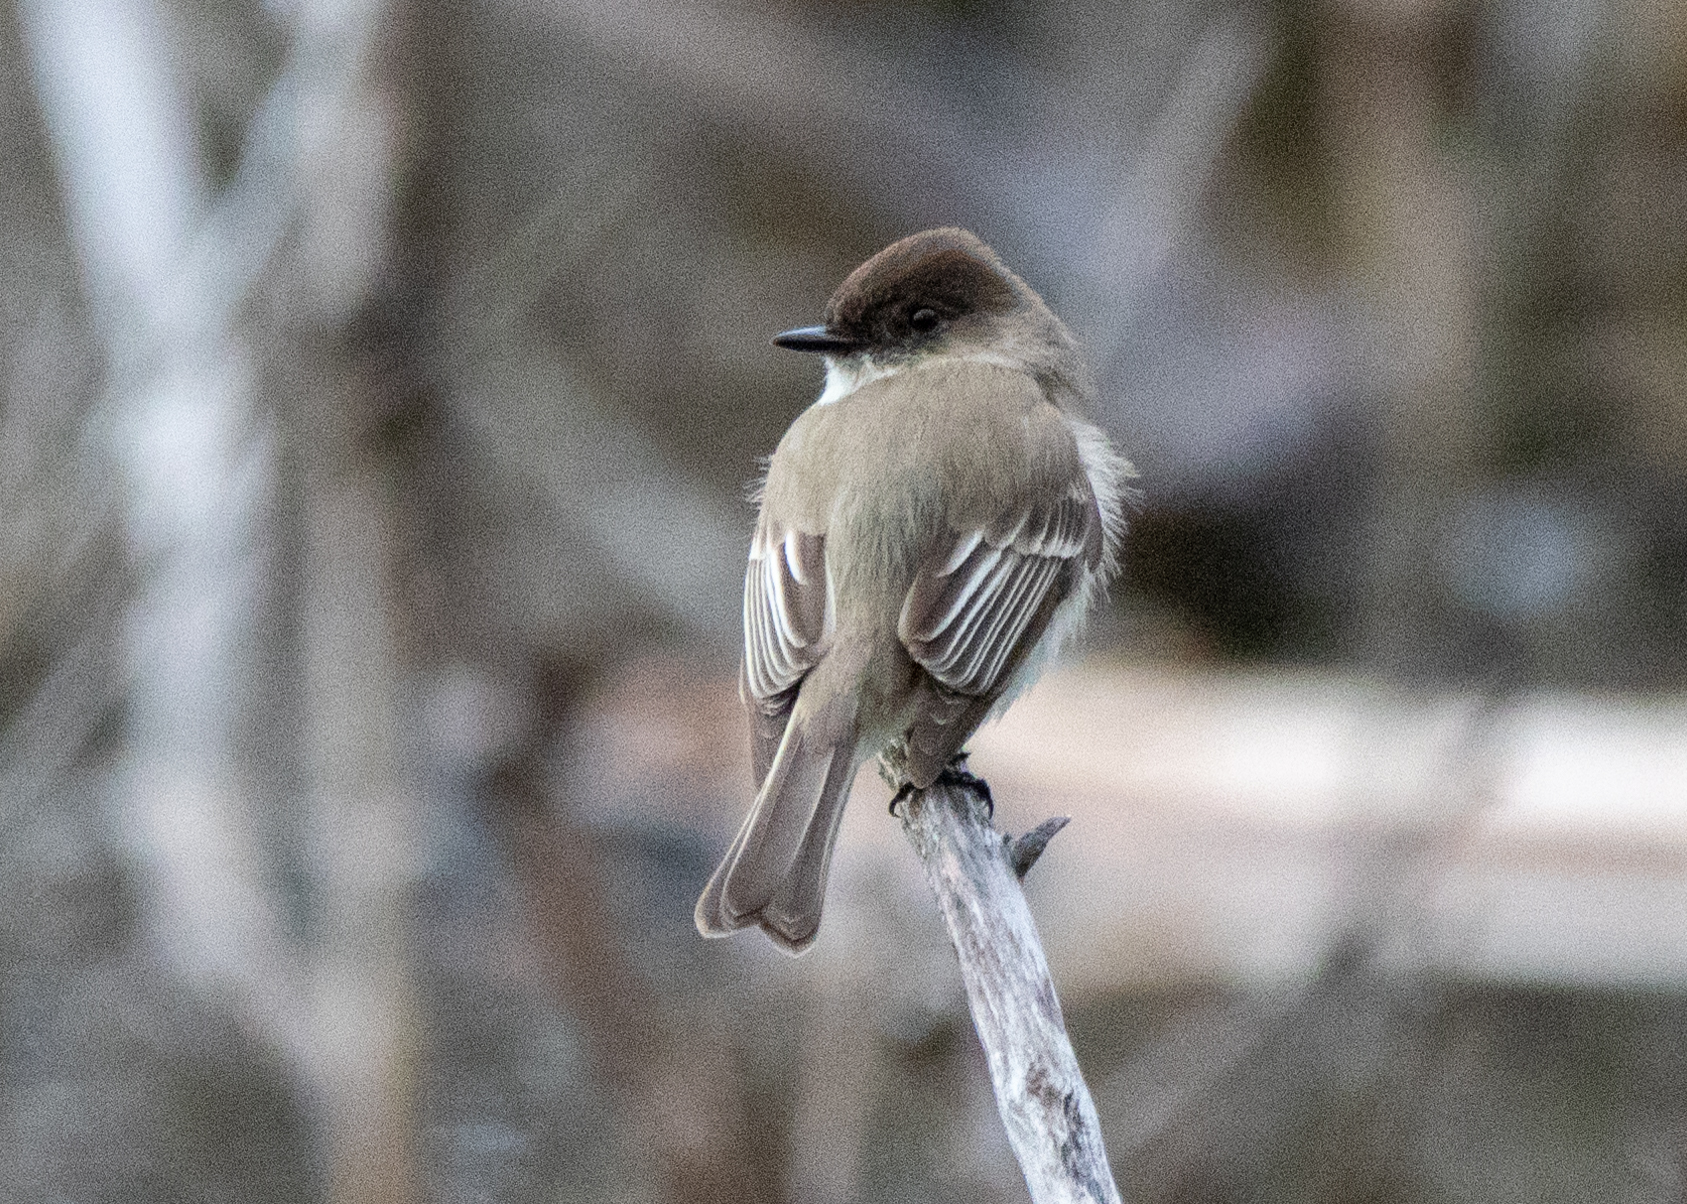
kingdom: Animalia
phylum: Chordata
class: Aves
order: Passeriformes
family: Tyrannidae
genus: Sayornis
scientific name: Sayornis phoebe
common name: Eastern phoebe
